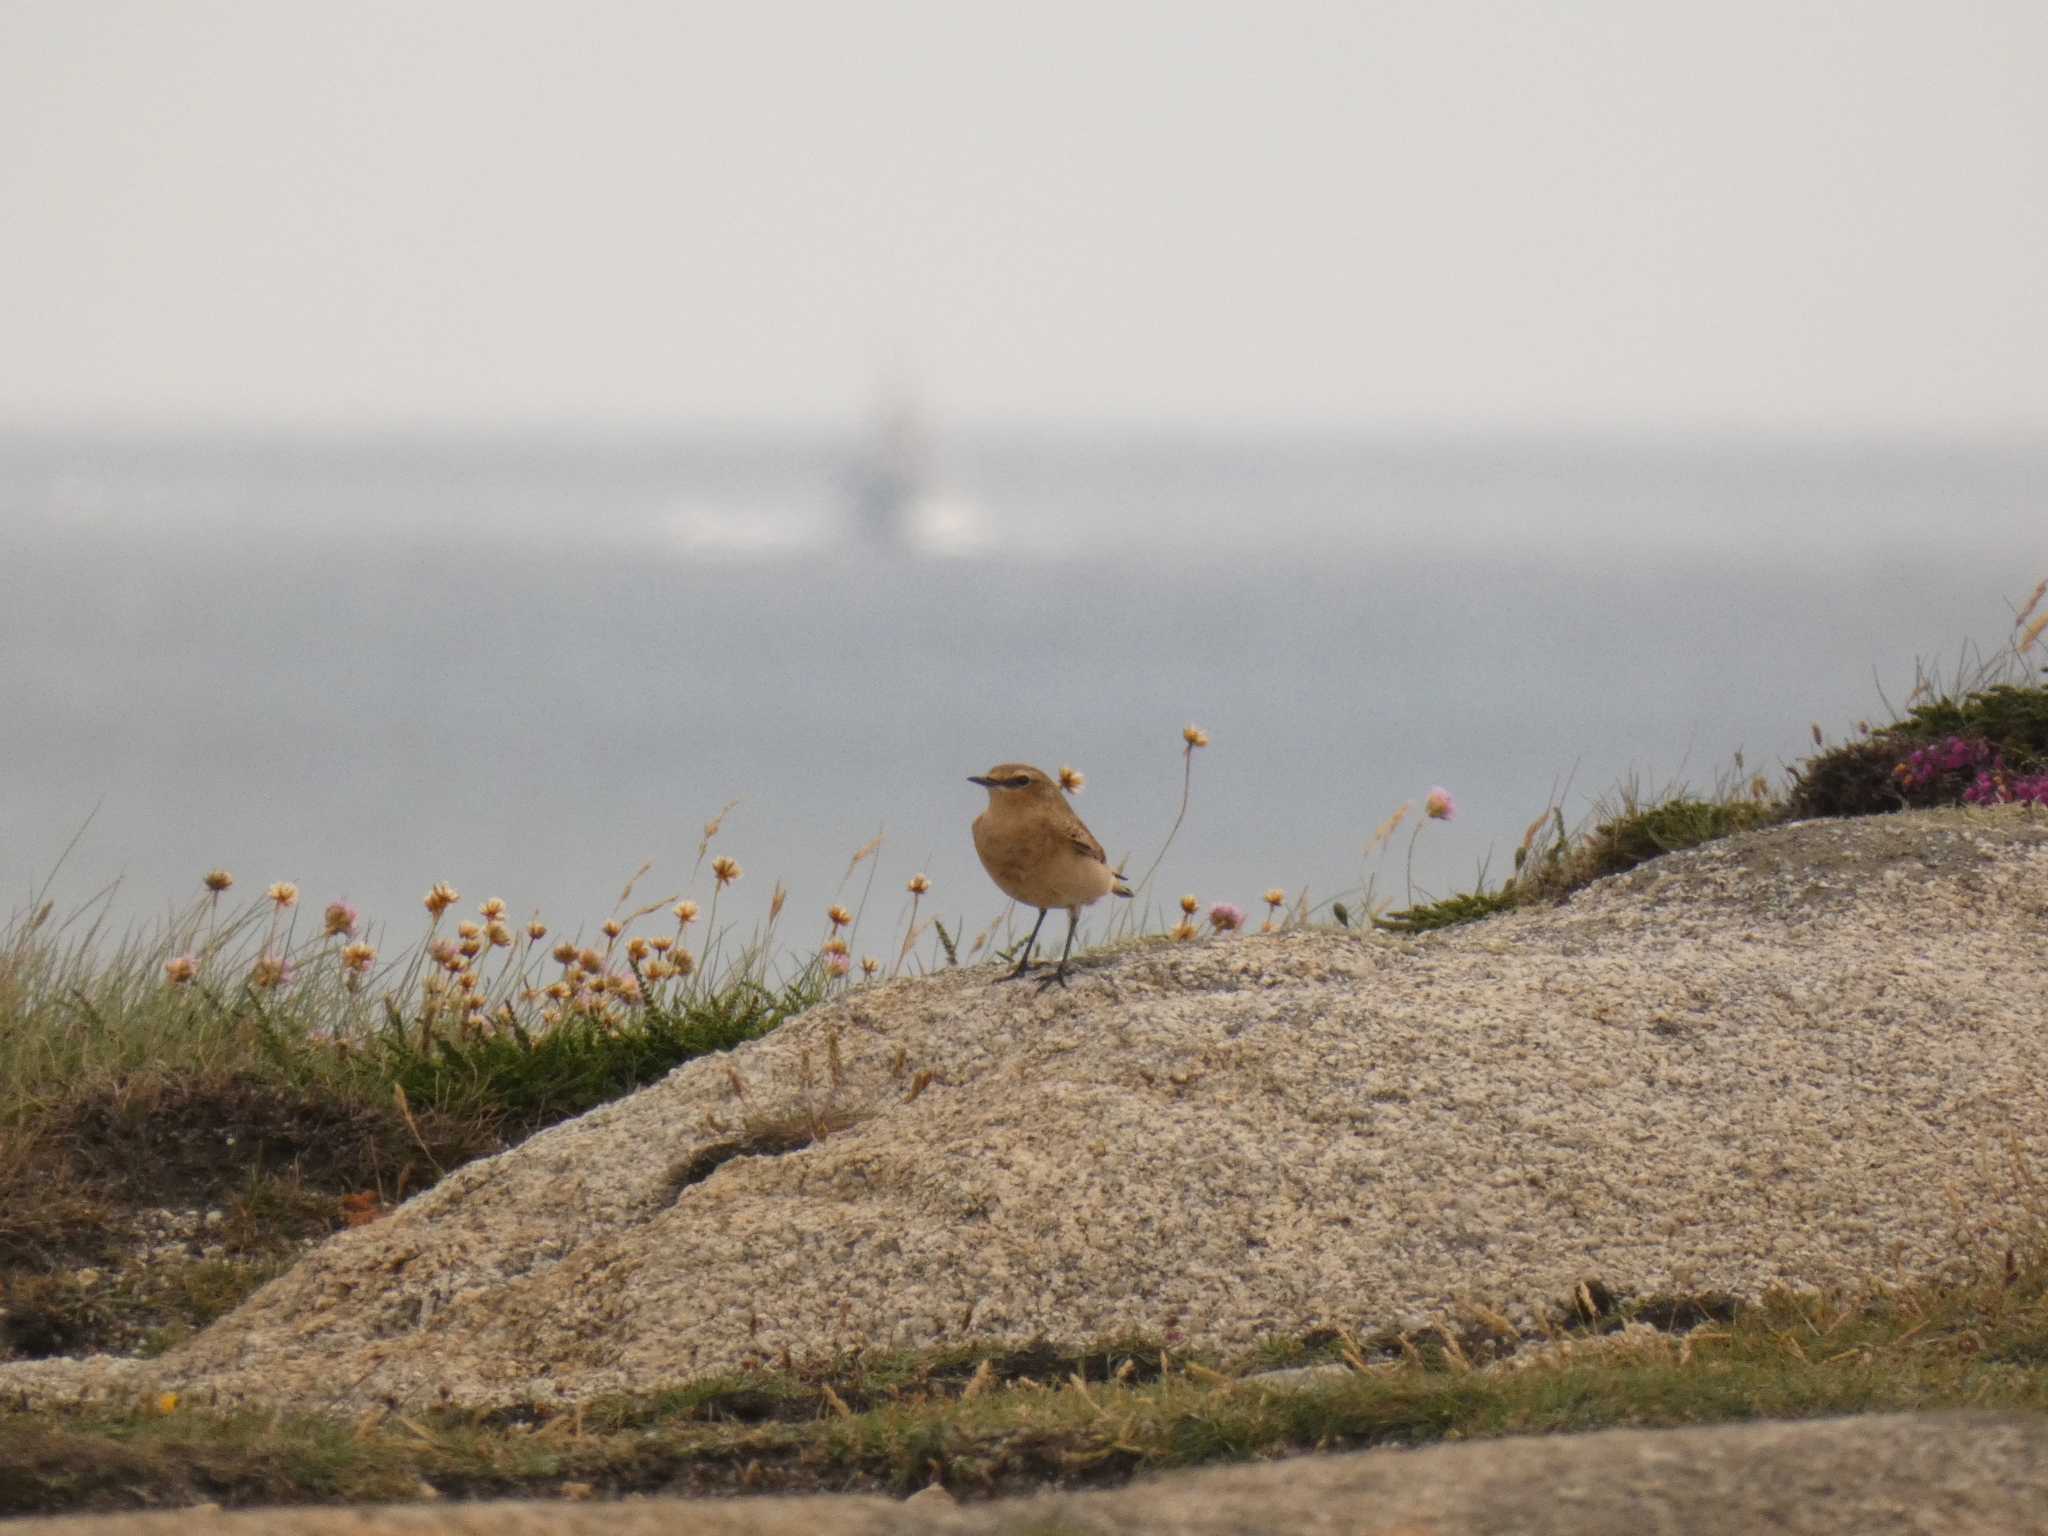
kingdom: Animalia
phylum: Chordata
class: Aves
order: Passeriformes
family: Muscicapidae
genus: Oenanthe
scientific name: Oenanthe oenanthe
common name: Northern wheatear
